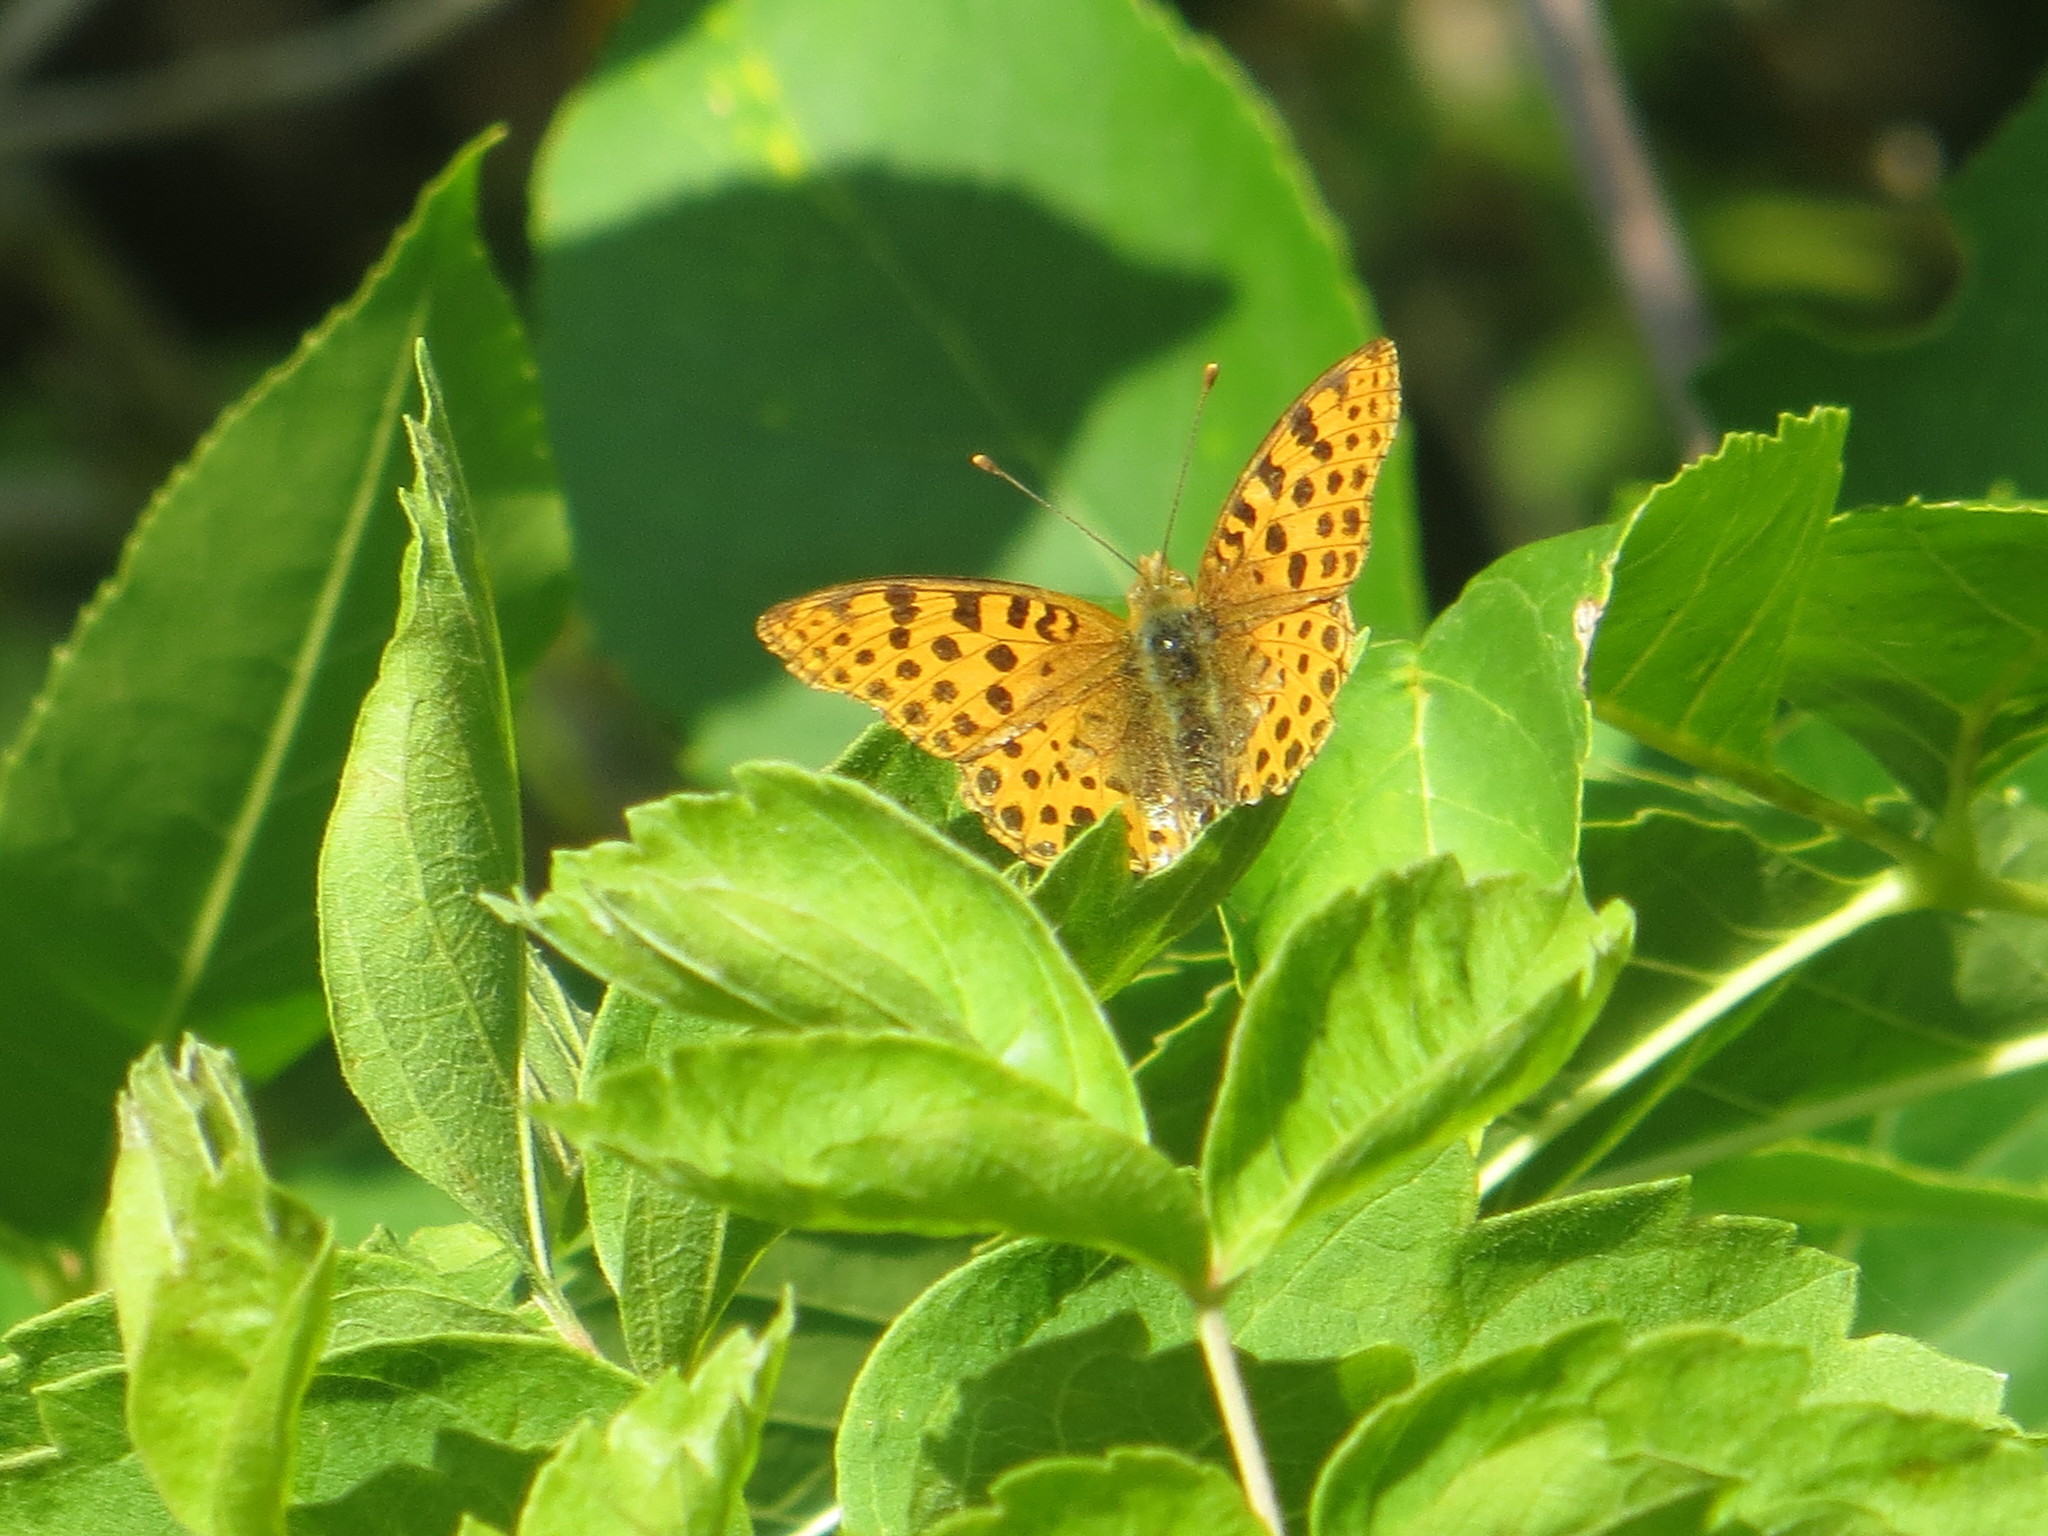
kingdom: Animalia
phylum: Arthropoda
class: Insecta
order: Lepidoptera
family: Nymphalidae
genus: Issoria
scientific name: Issoria lathonia
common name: Queen of spain fritillary
